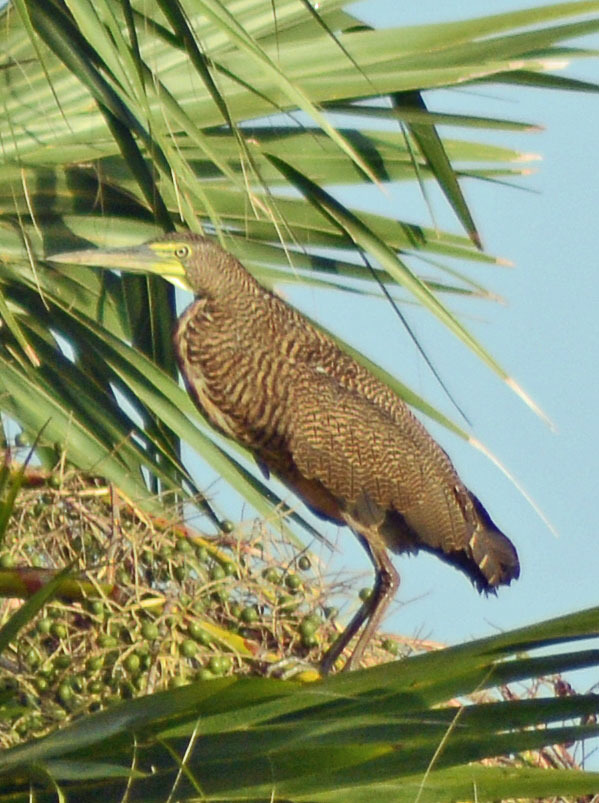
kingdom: Animalia
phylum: Chordata
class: Aves
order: Pelecaniformes
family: Ardeidae
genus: Tigrisoma
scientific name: Tigrisoma mexicanum
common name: Bare-throated tiger-heron
